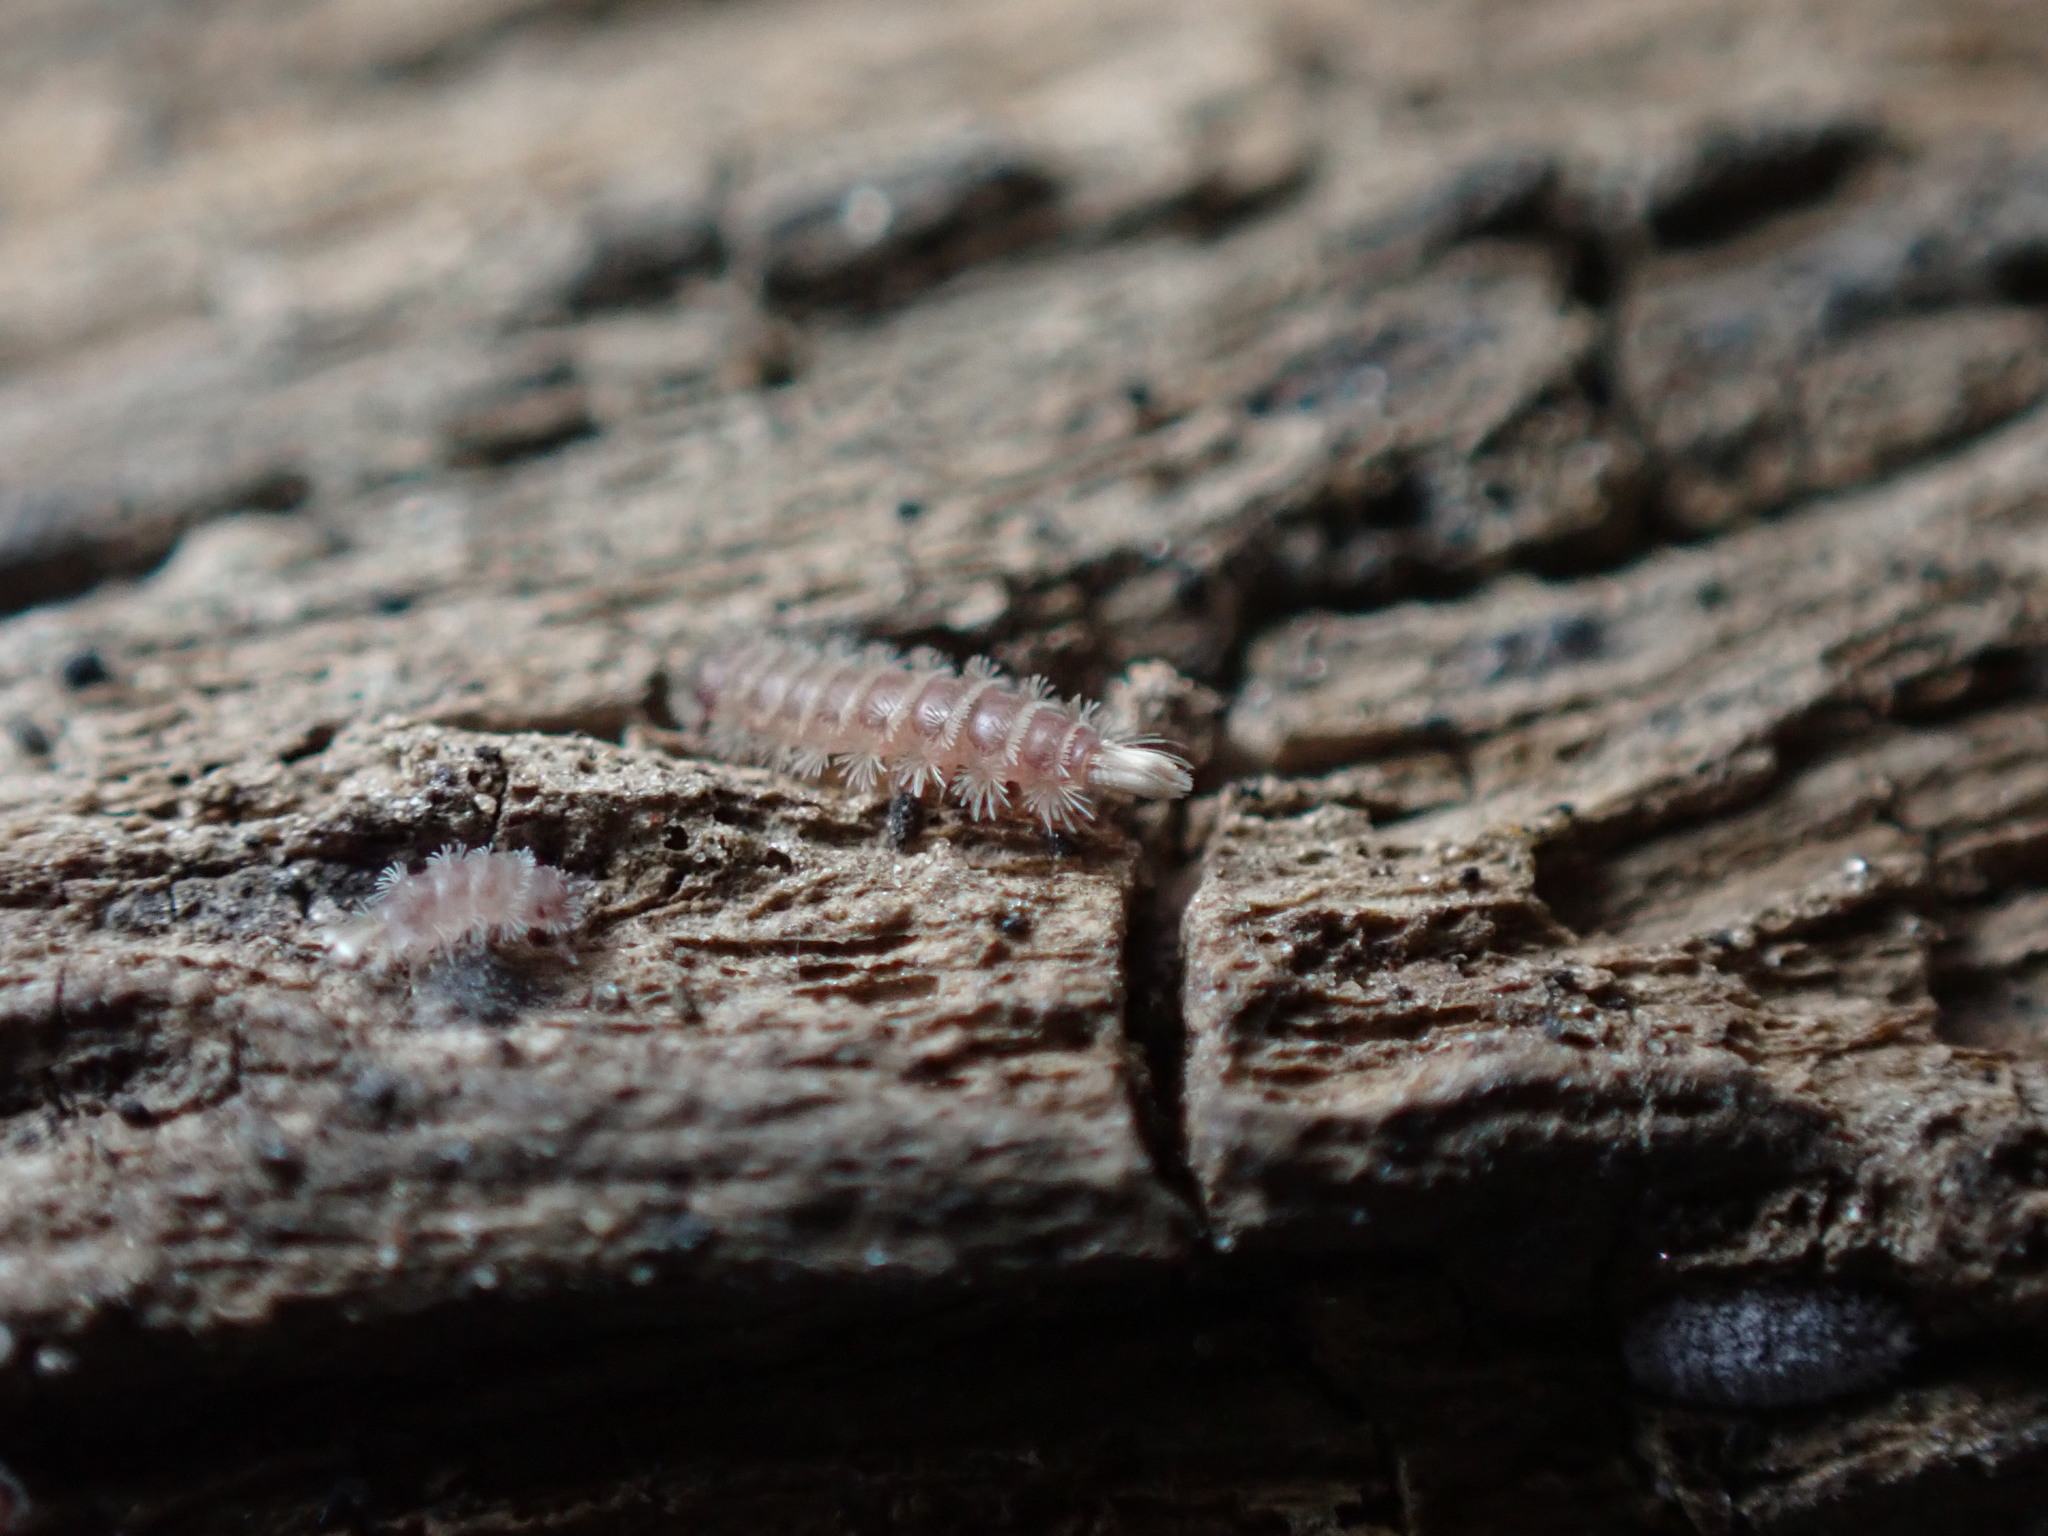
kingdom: Animalia
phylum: Arthropoda
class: Diplopoda
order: Polyxenida
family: Polyxenidae
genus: Polyxenus
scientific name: Polyxenus lagurus
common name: Bristly millipede
